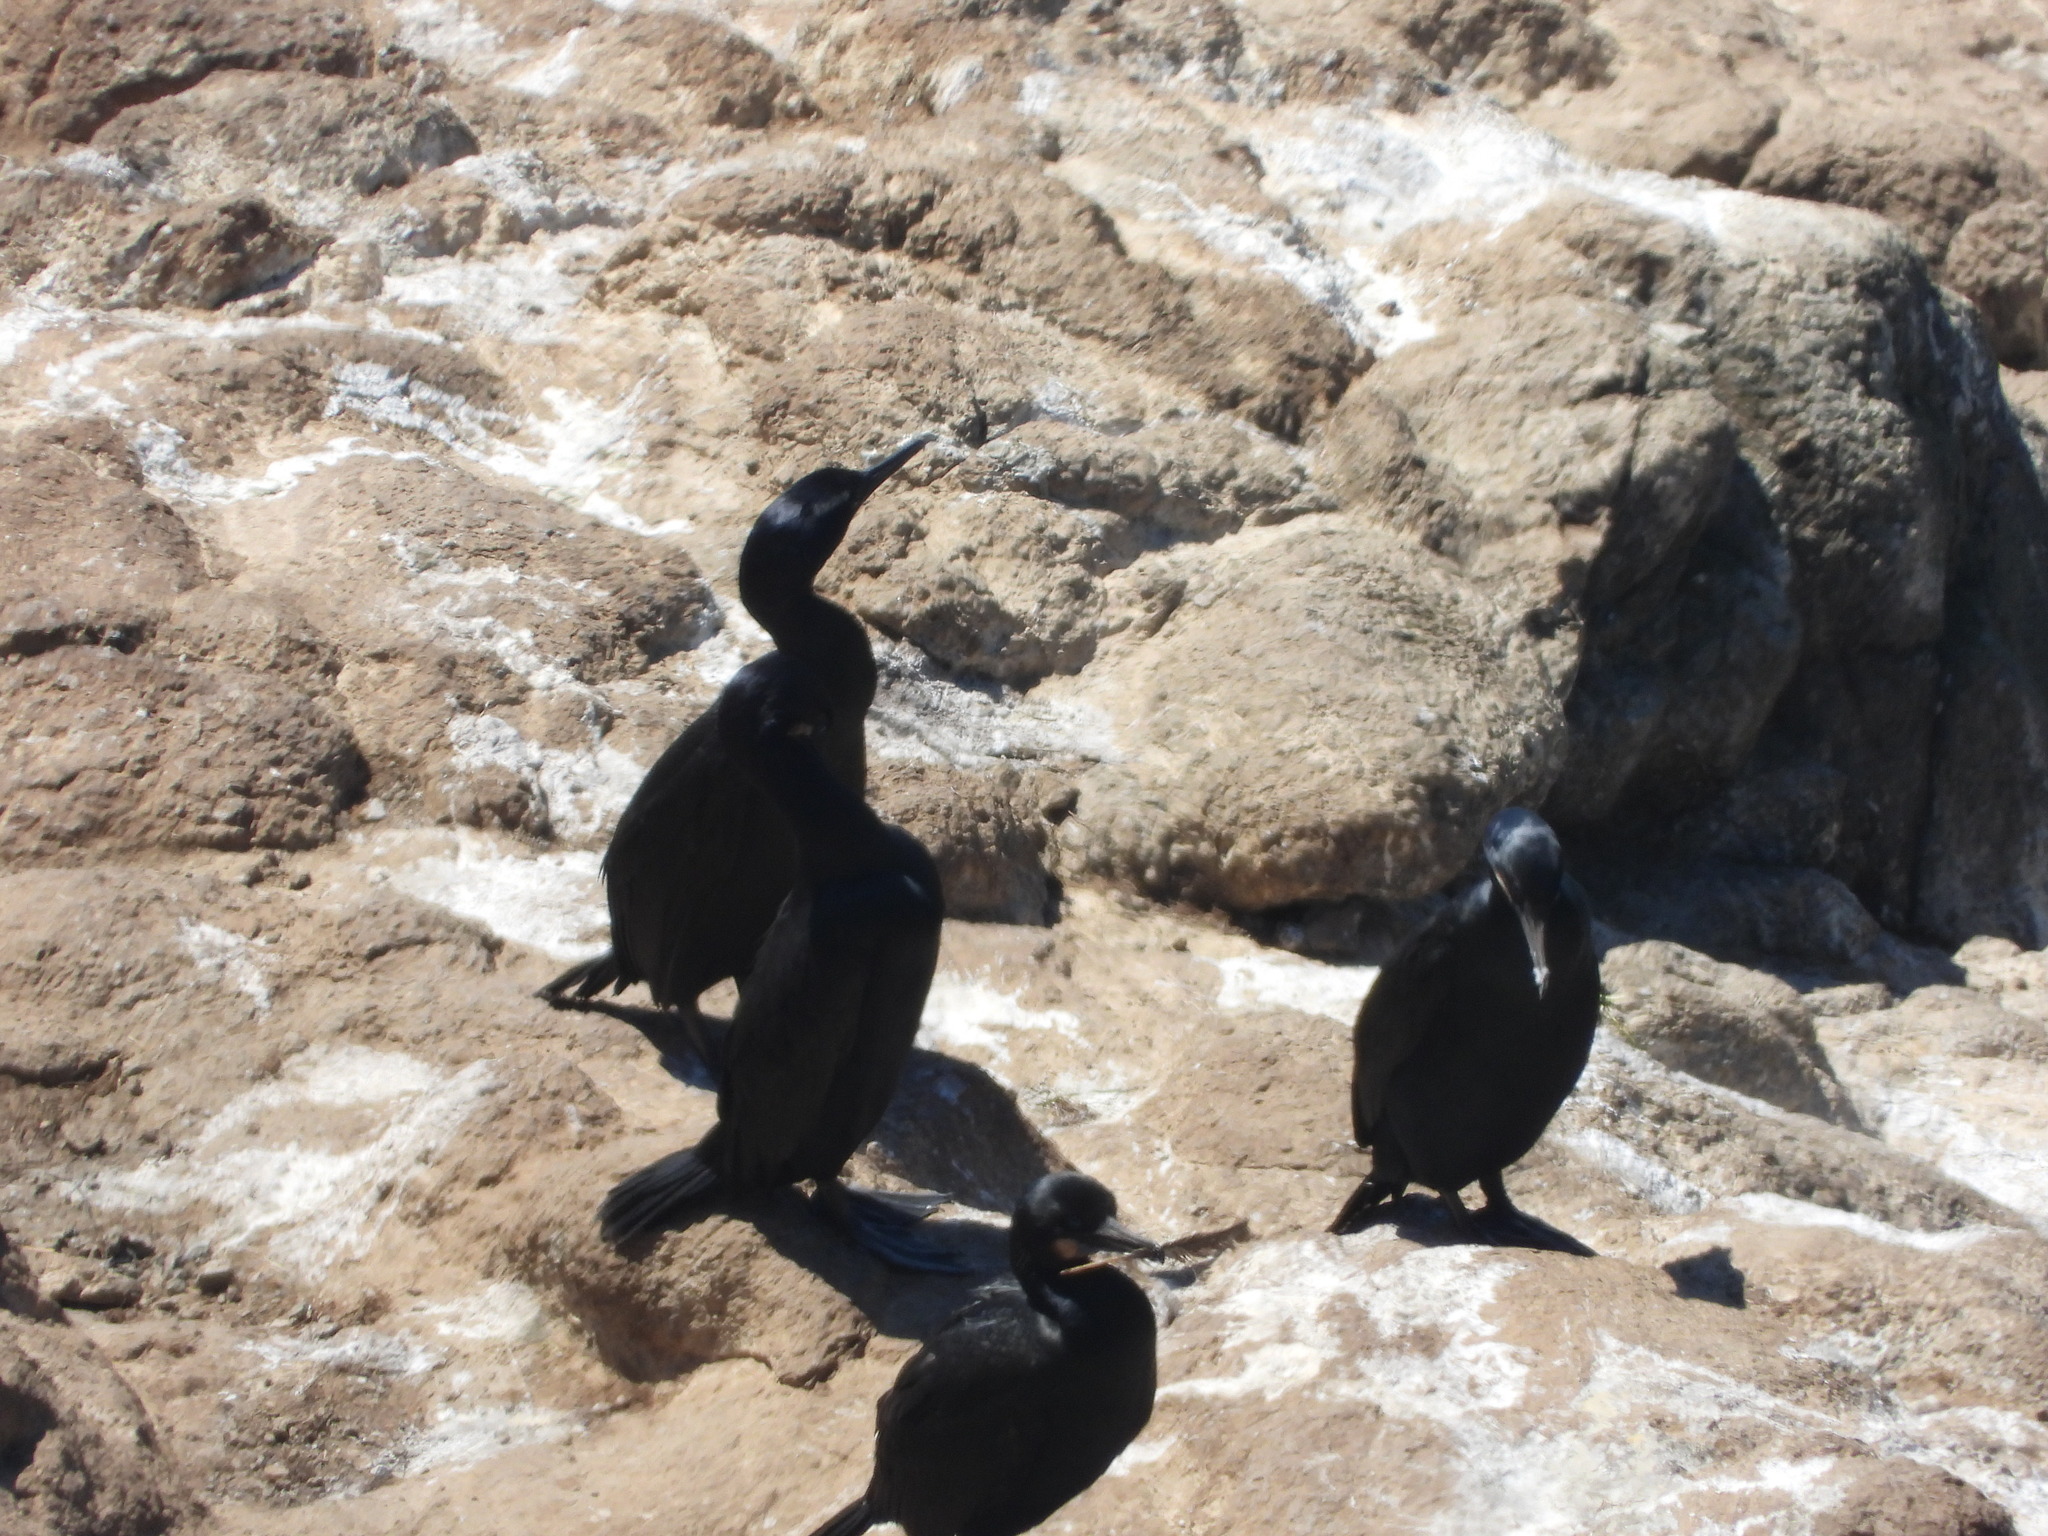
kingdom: Animalia
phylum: Chordata
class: Aves
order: Suliformes
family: Phalacrocoracidae
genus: Urile
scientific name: Urile penicillatus
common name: Brandt's cormorant
